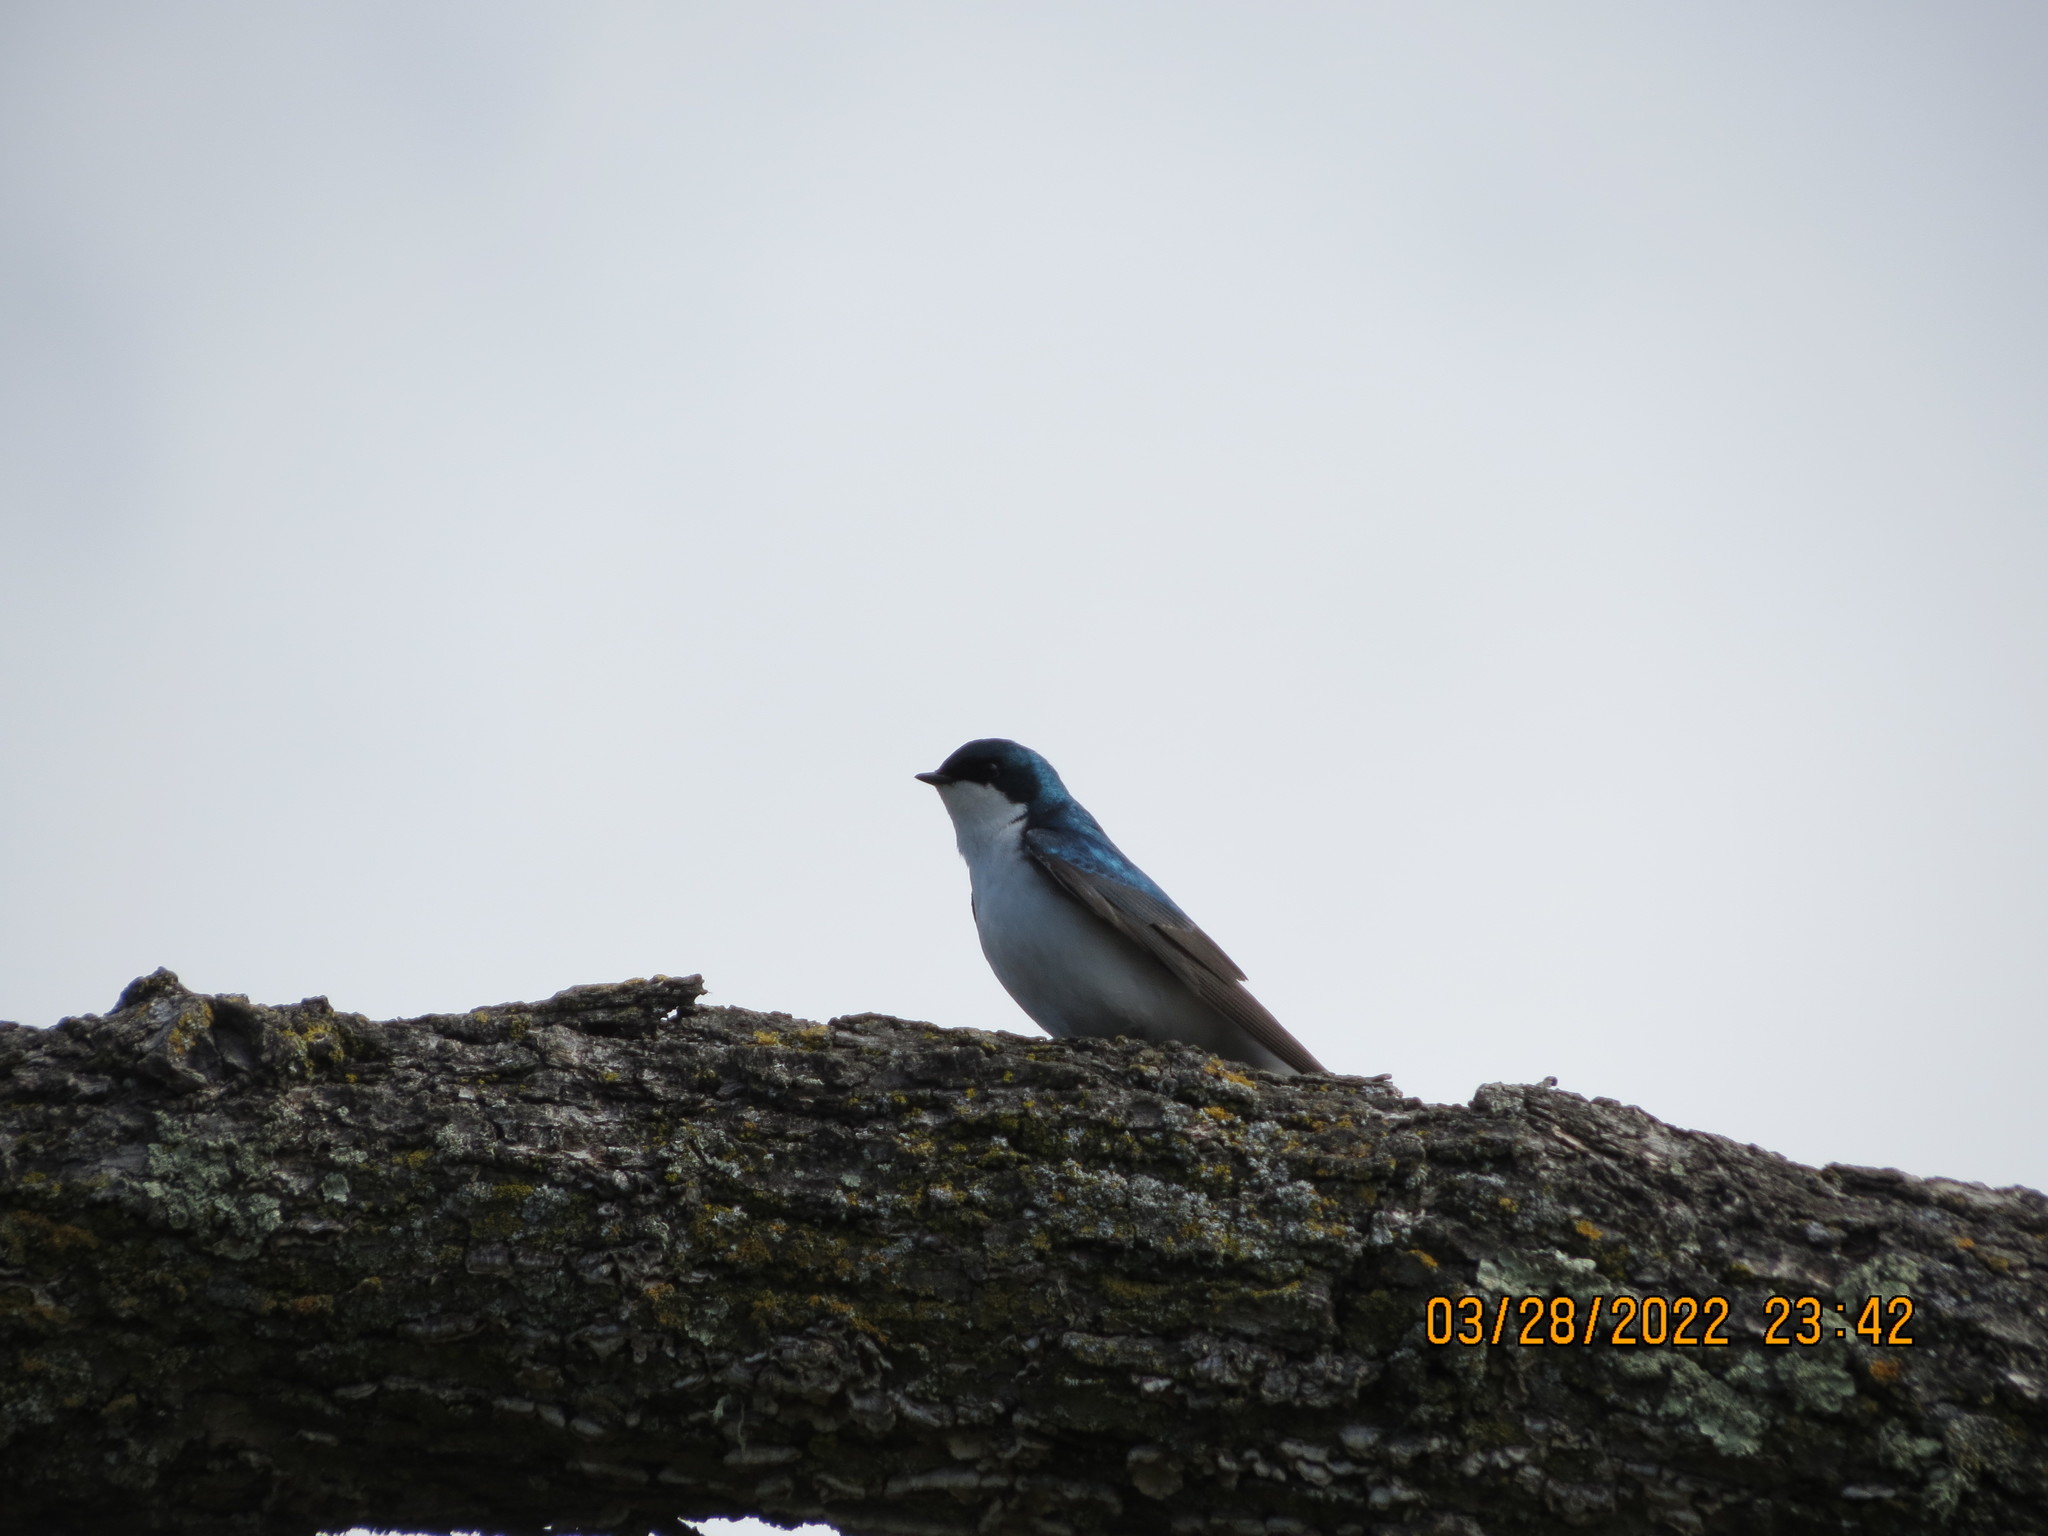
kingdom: Animalia
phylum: Chordata
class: Aves
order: Passeriformes
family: Hirundinidae
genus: Tachycineta
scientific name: Tachycineta bicolor
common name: Tree swallow
